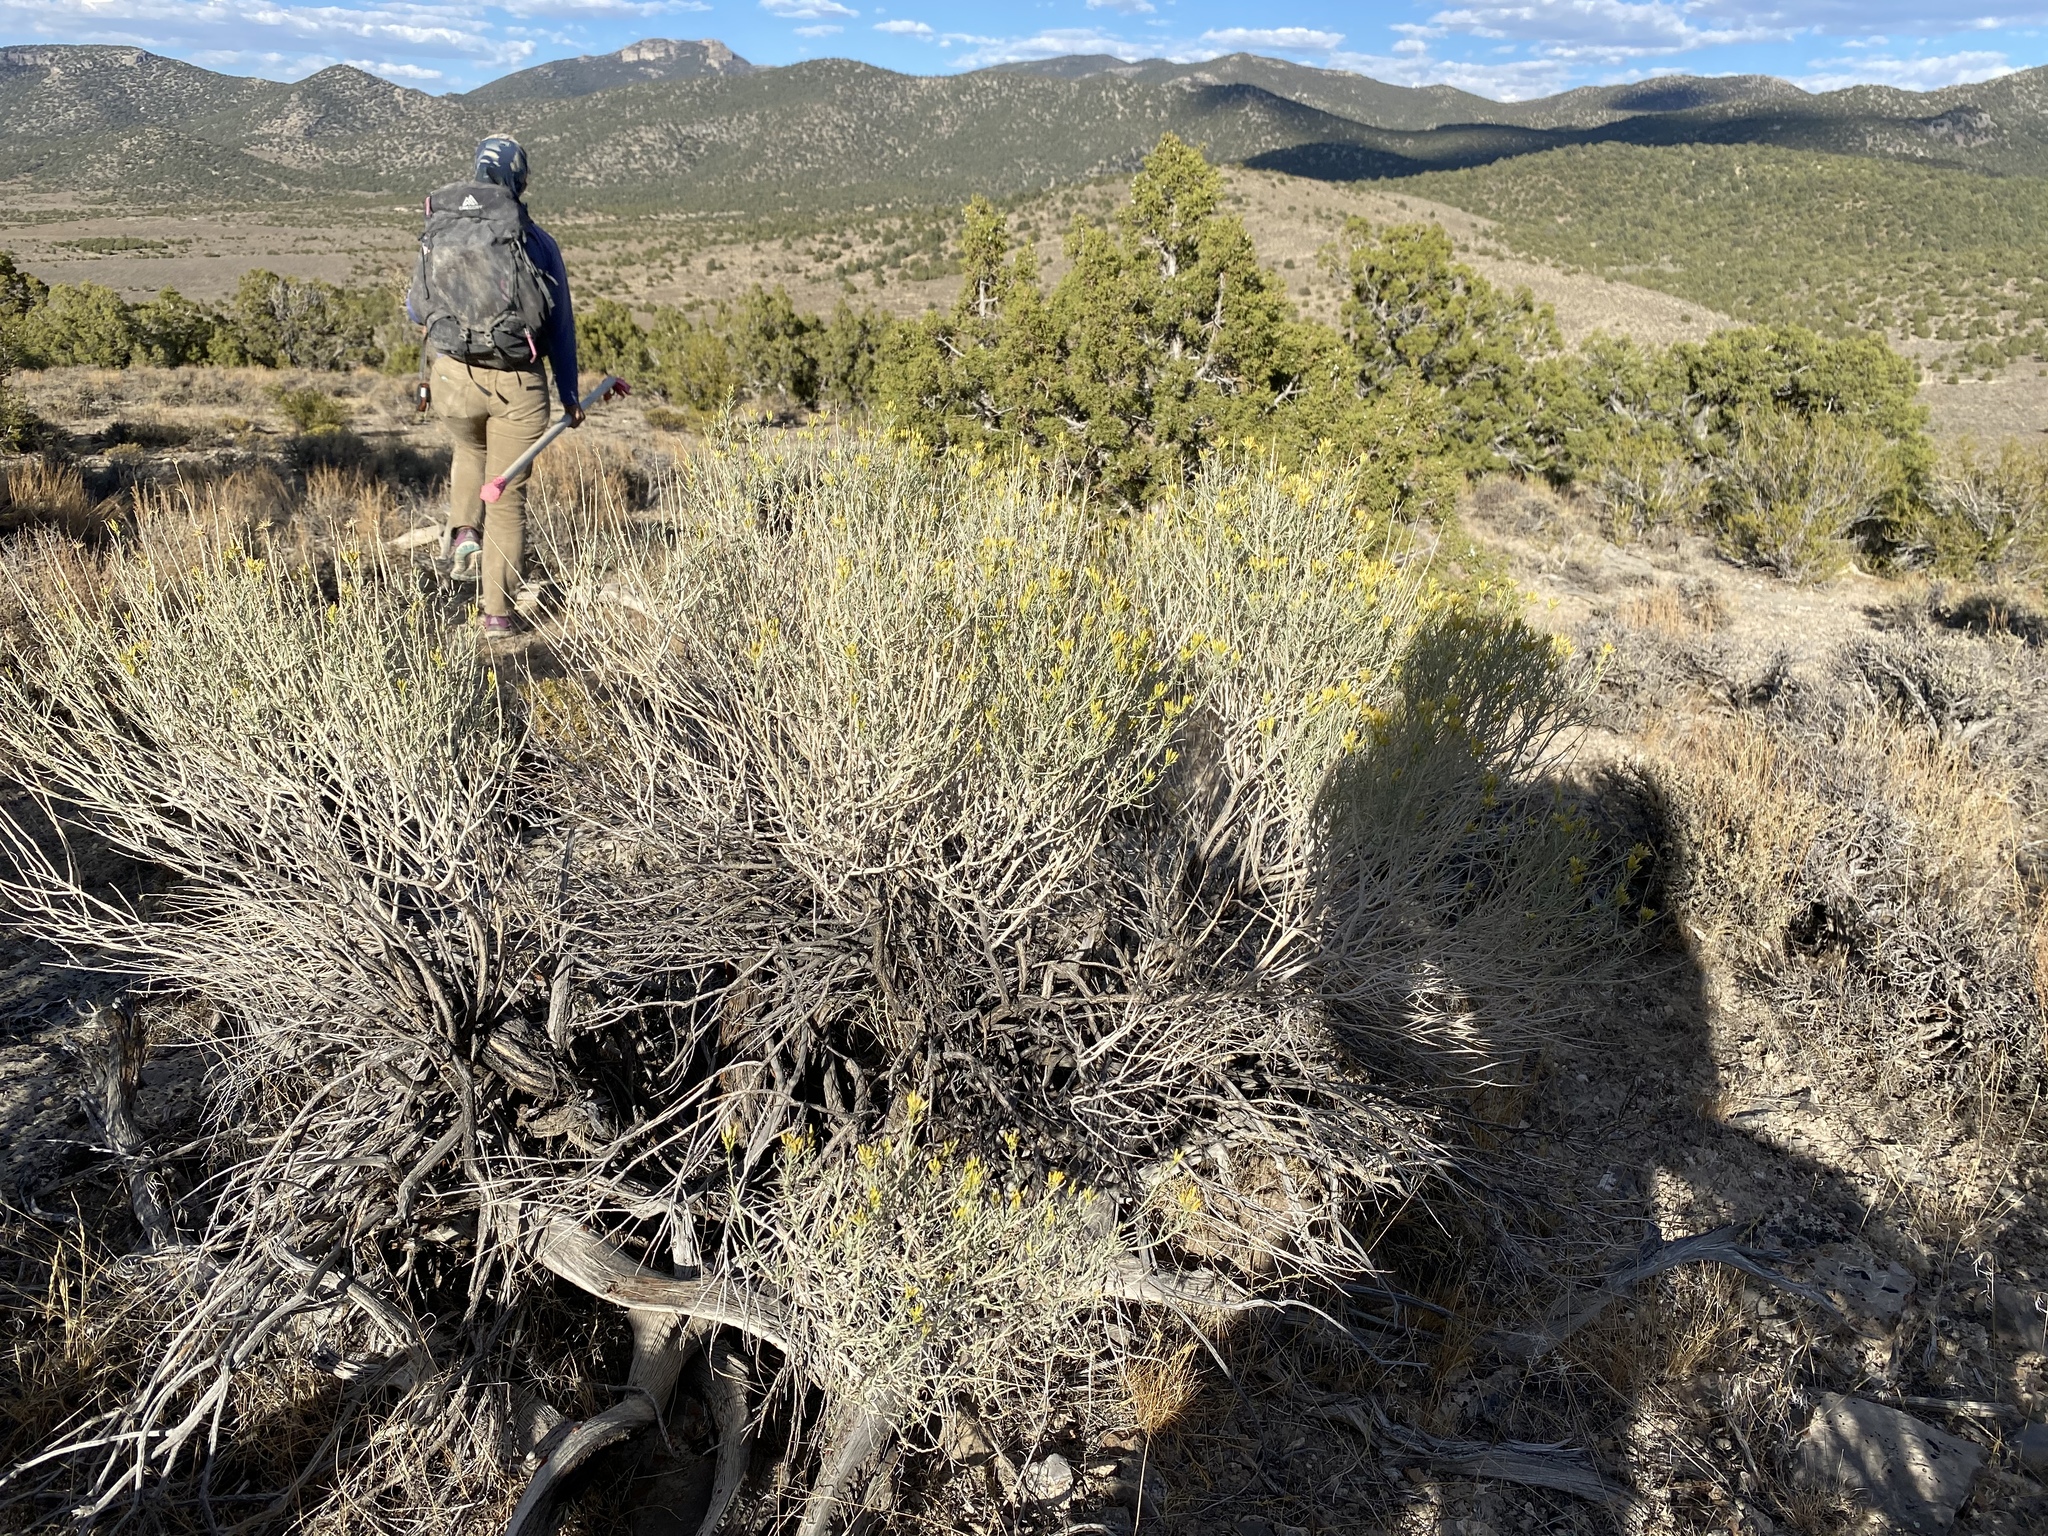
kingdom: Plantae
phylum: Tracheophyta
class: Magnoliopsida
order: Asterales
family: Asteraceae
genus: Ericameria
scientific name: Ericameria nauseosa
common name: Rubber rabbitbrush
